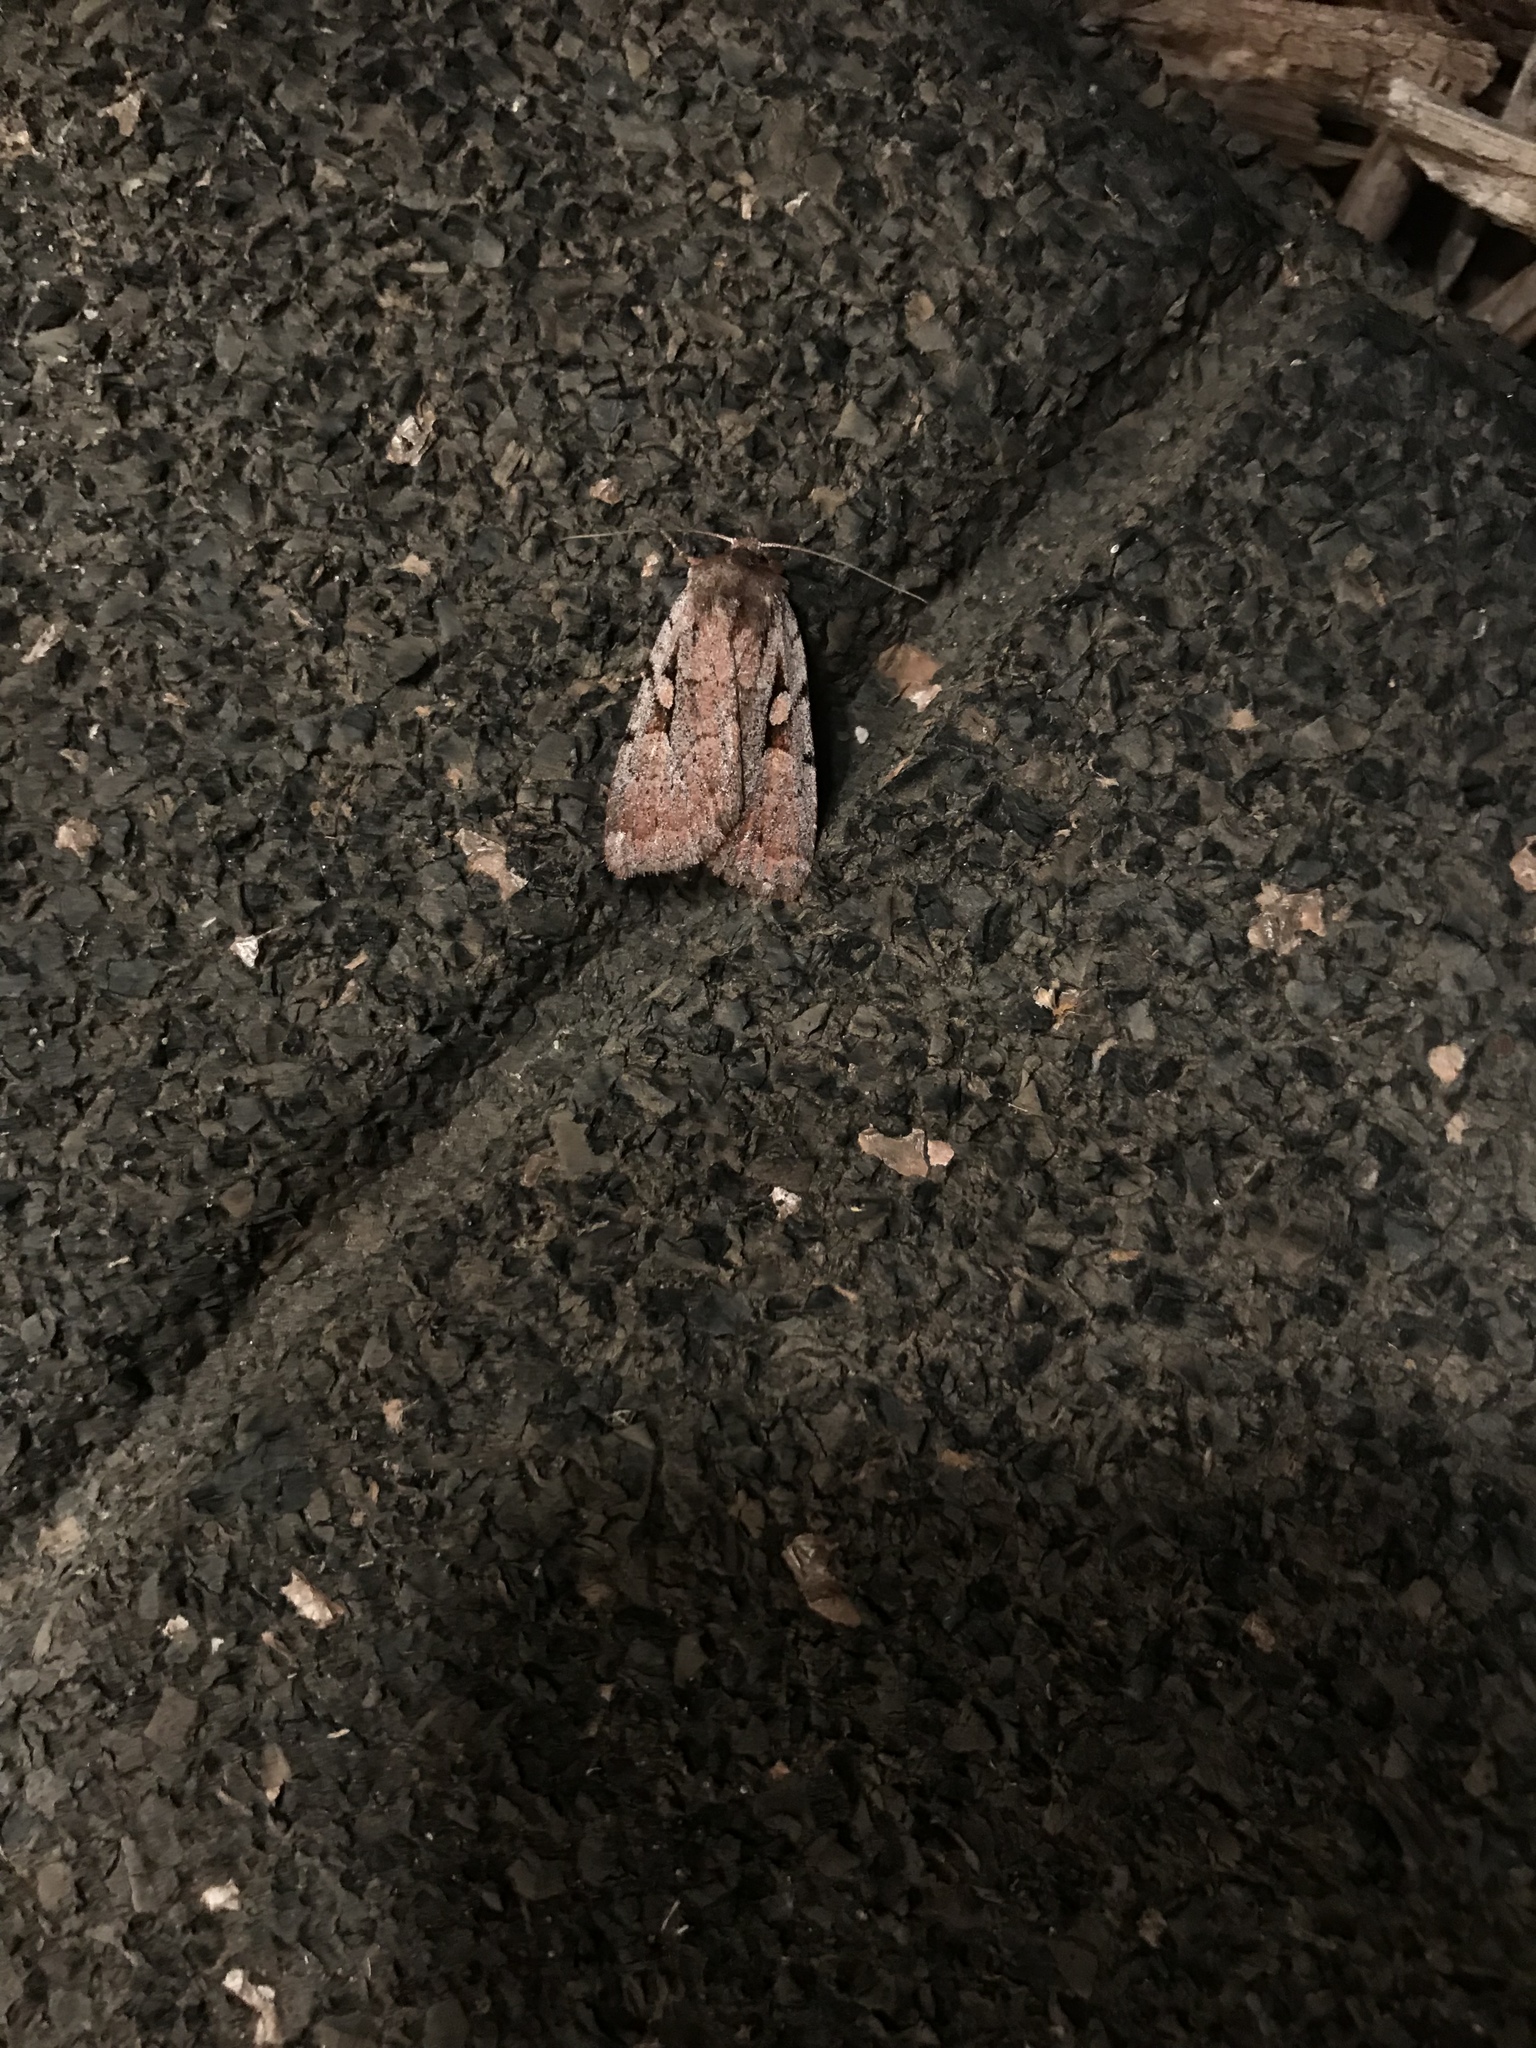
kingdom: Animalia
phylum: Arthropoda
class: Insecta
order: Lepidoptera
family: Noctuidae
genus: Xestia
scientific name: Xestia badicollis
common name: Northern variable dart
